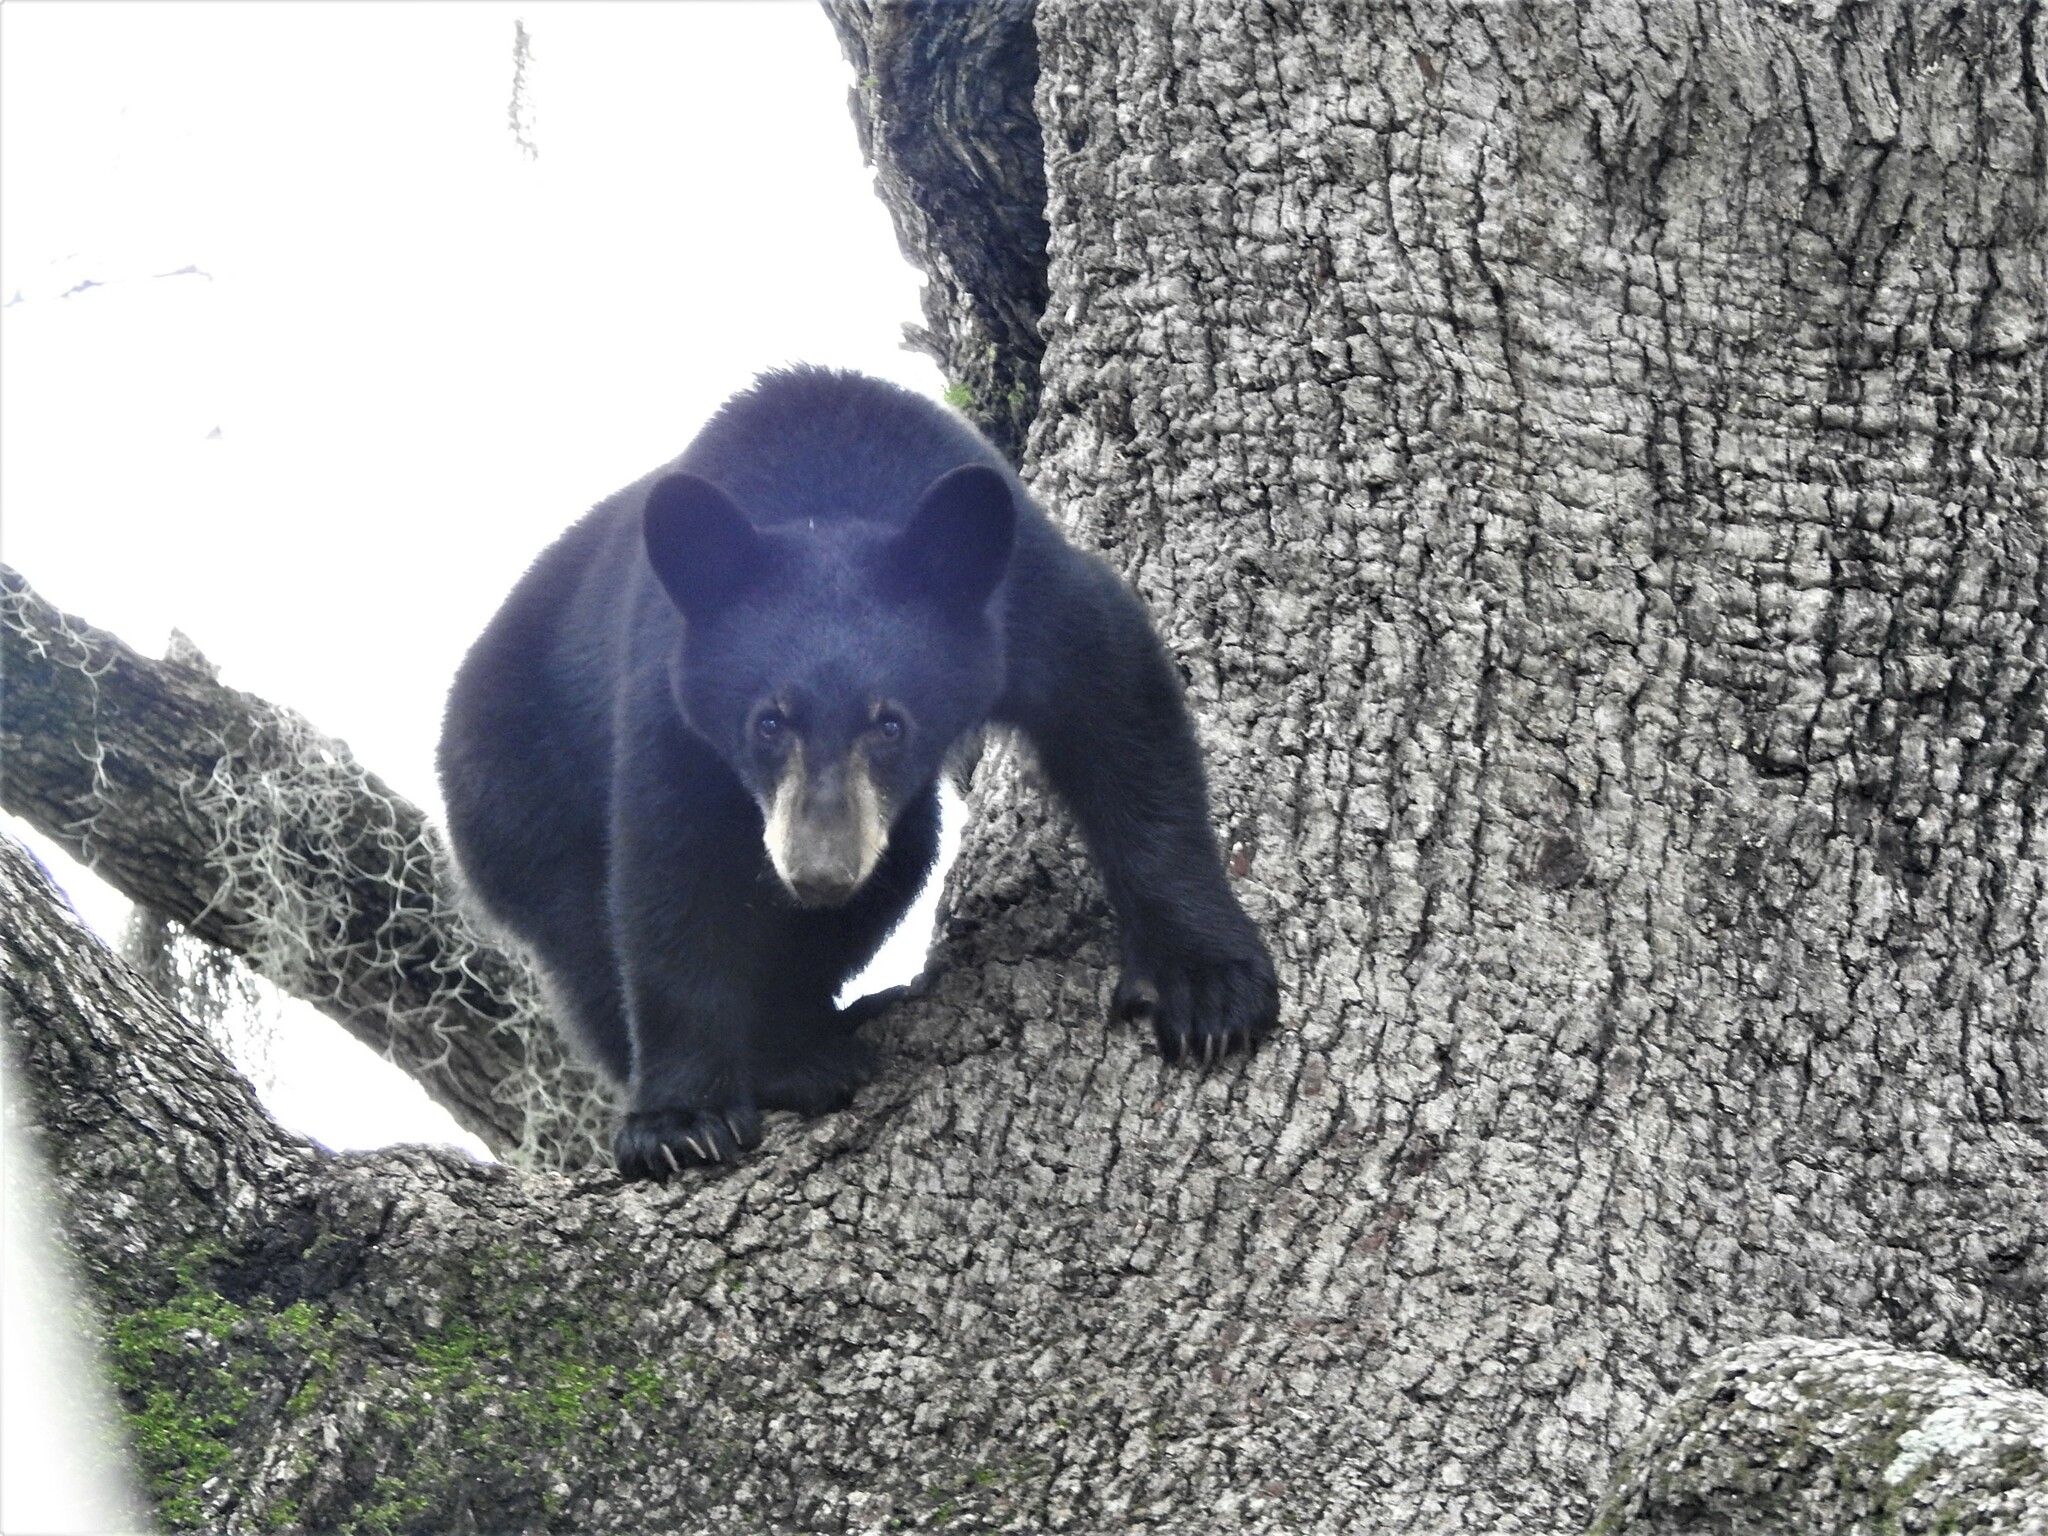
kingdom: Animalia
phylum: Chordata
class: Mammalia
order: Carnivora
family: Ursidae
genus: Ursus
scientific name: Ursus americanus
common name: American black bear
